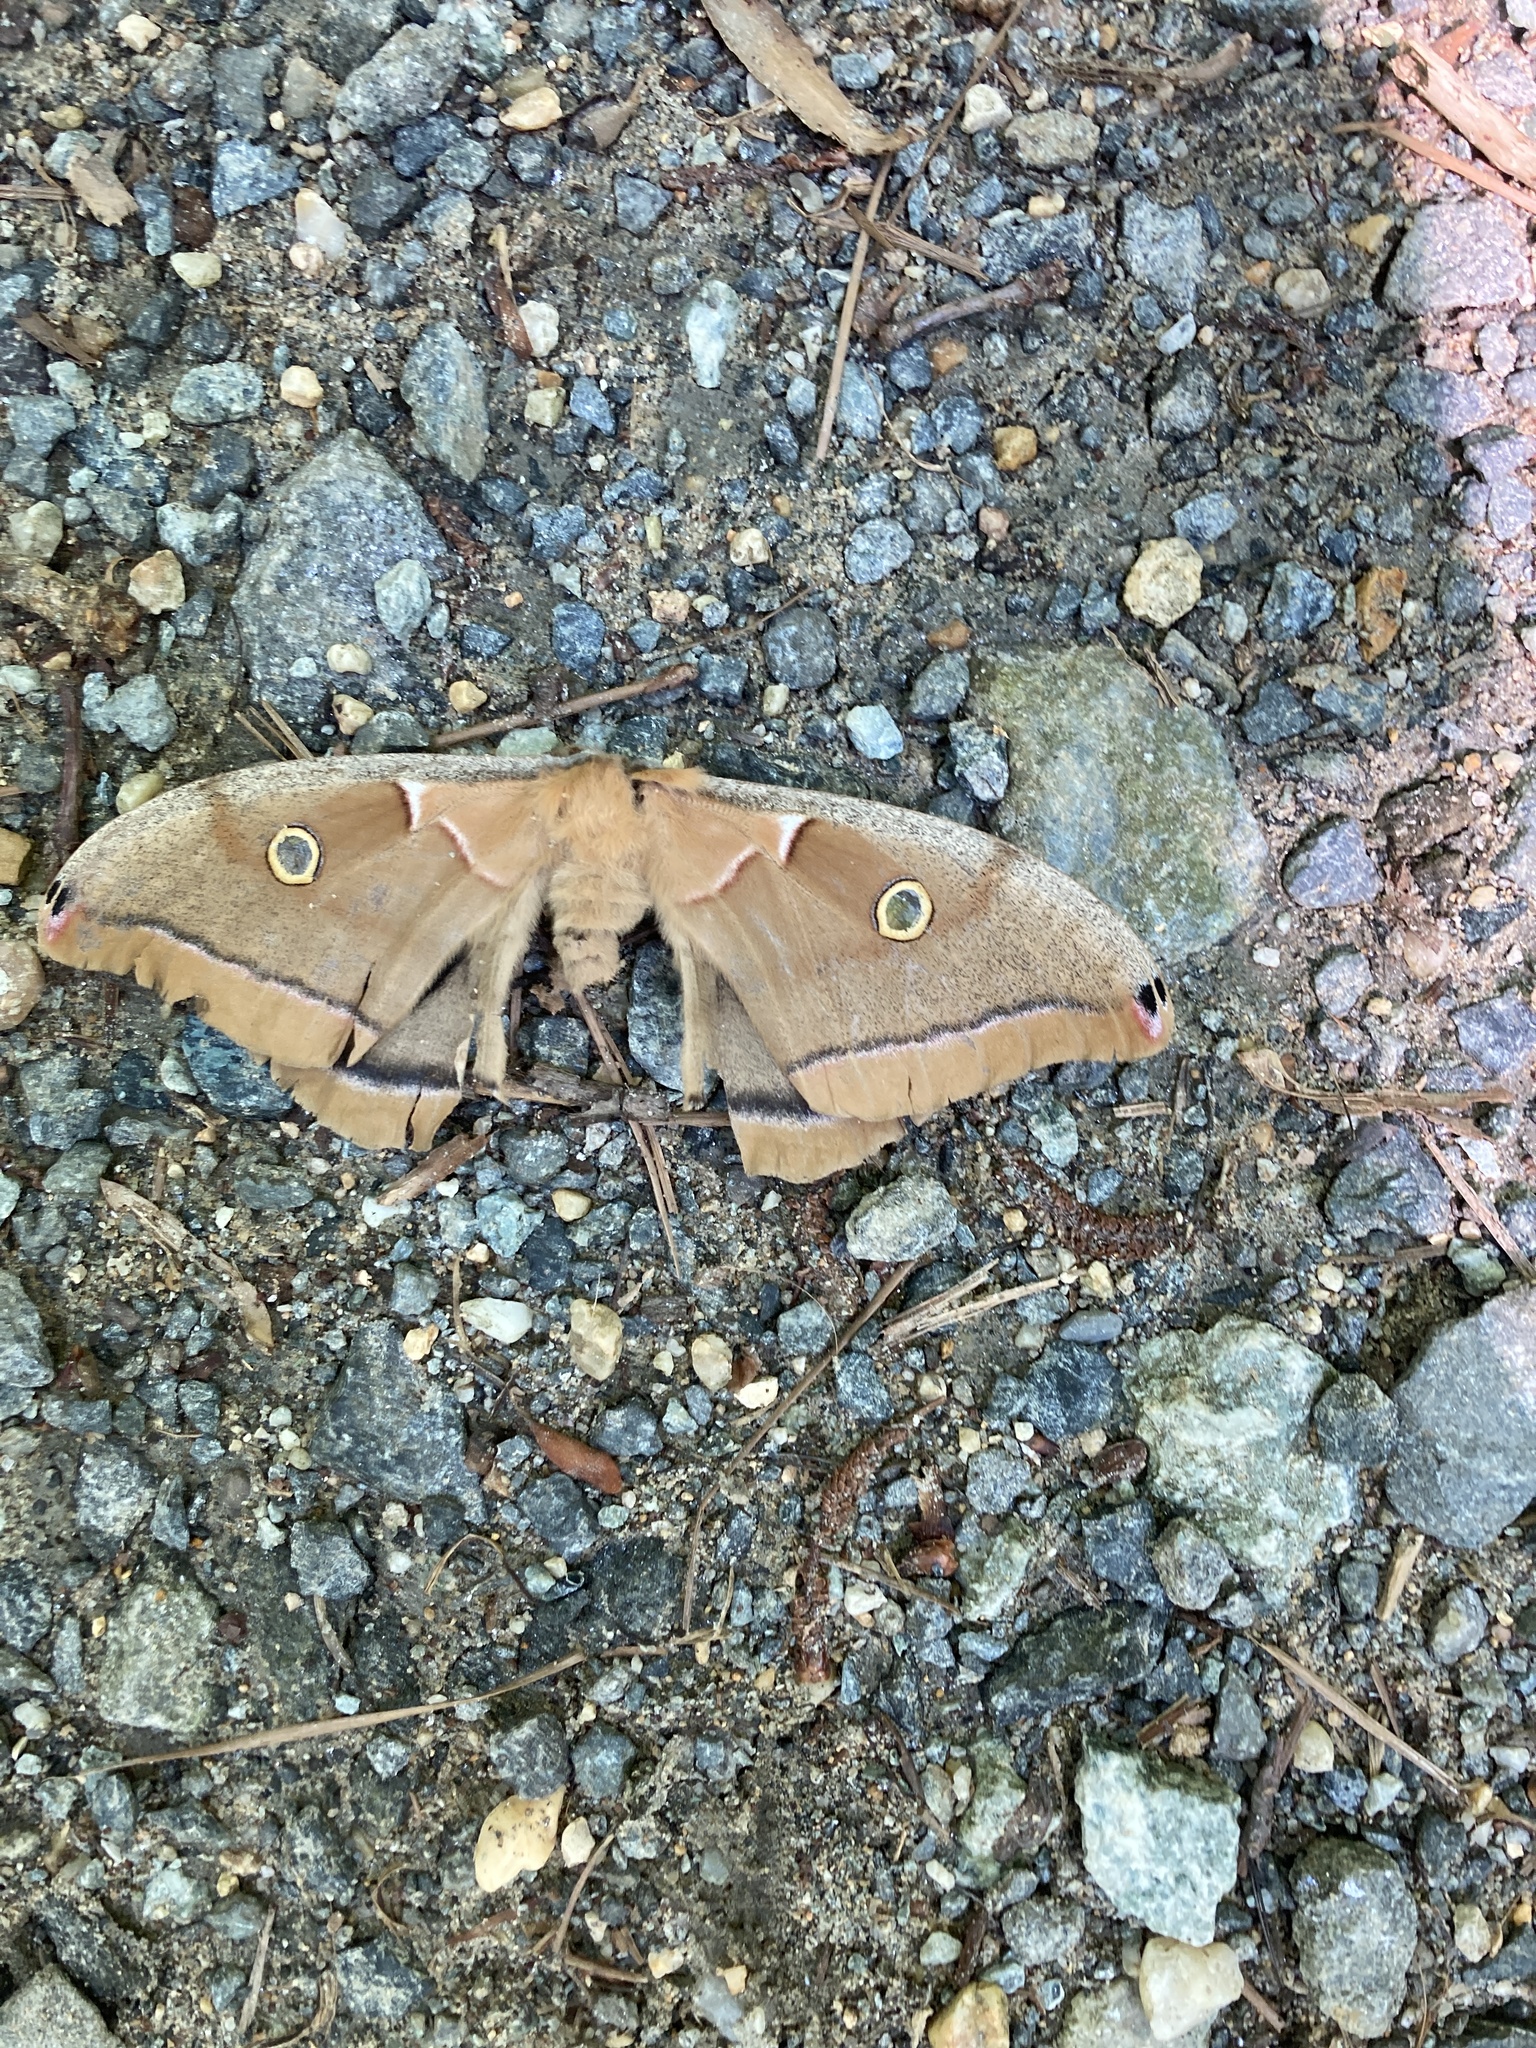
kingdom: Animalia
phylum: Arthropoda
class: Insecta
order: Lepidoptera
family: Saturniidae
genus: Antheraea
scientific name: Antheraea polyphemus
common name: Polyphemus moth
